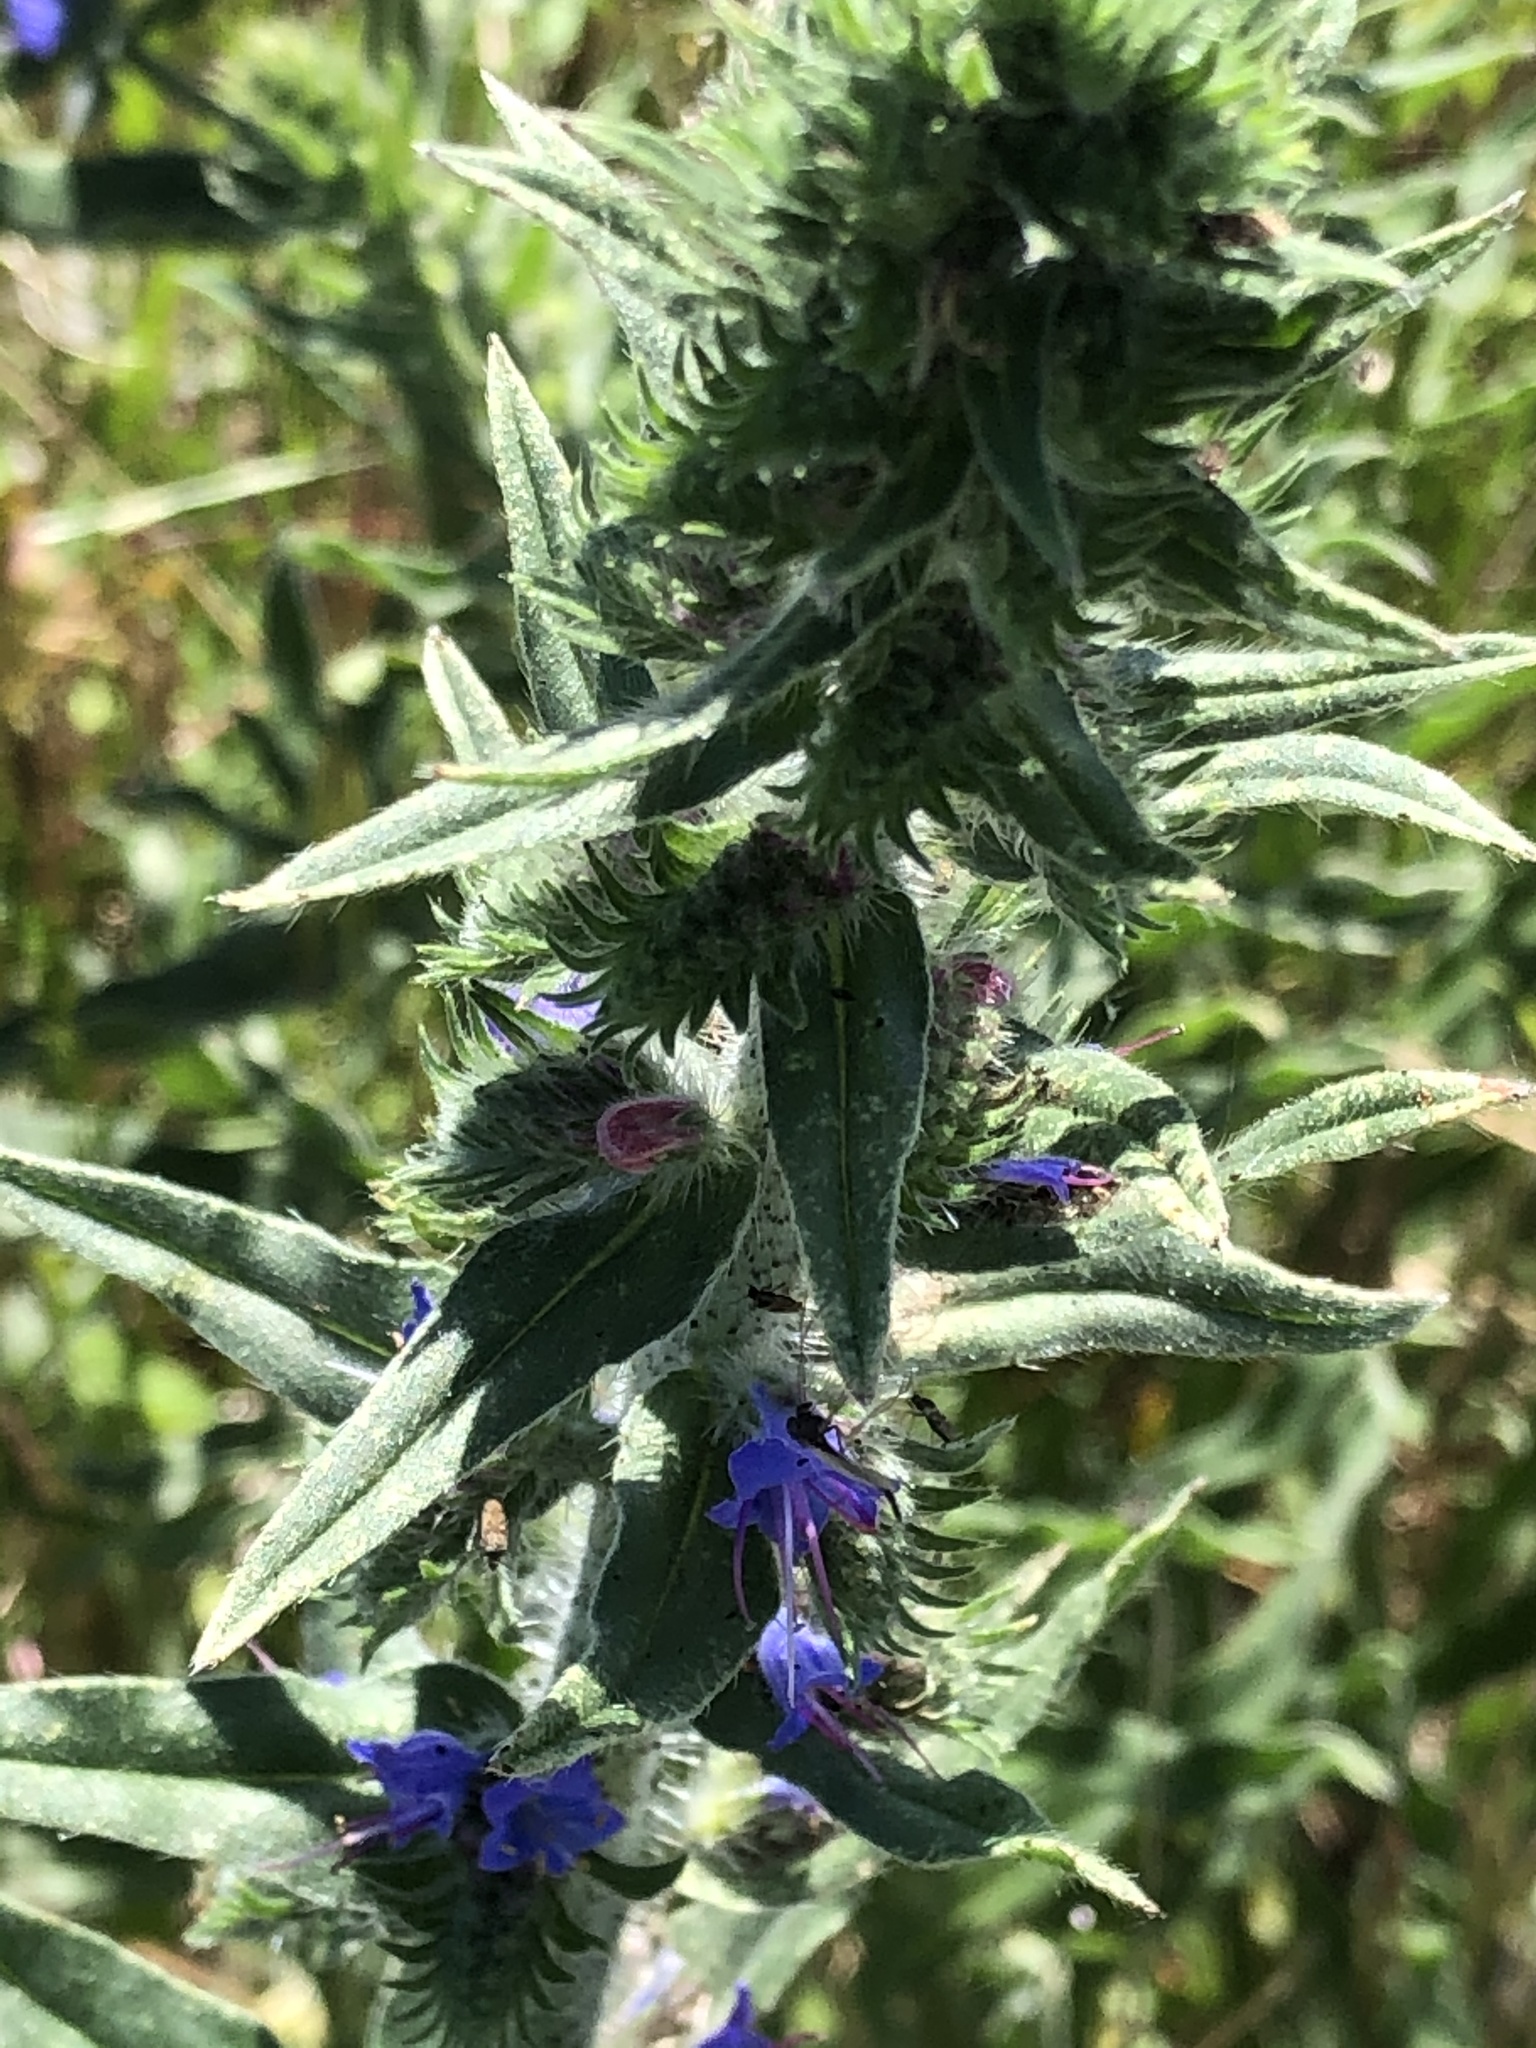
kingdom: Plantae
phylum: Tracheophyta
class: Magnoliopsida
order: Boraginales
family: Boraginaceae
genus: Echium
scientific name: Echium vulgare
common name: Common viper's bugloss
